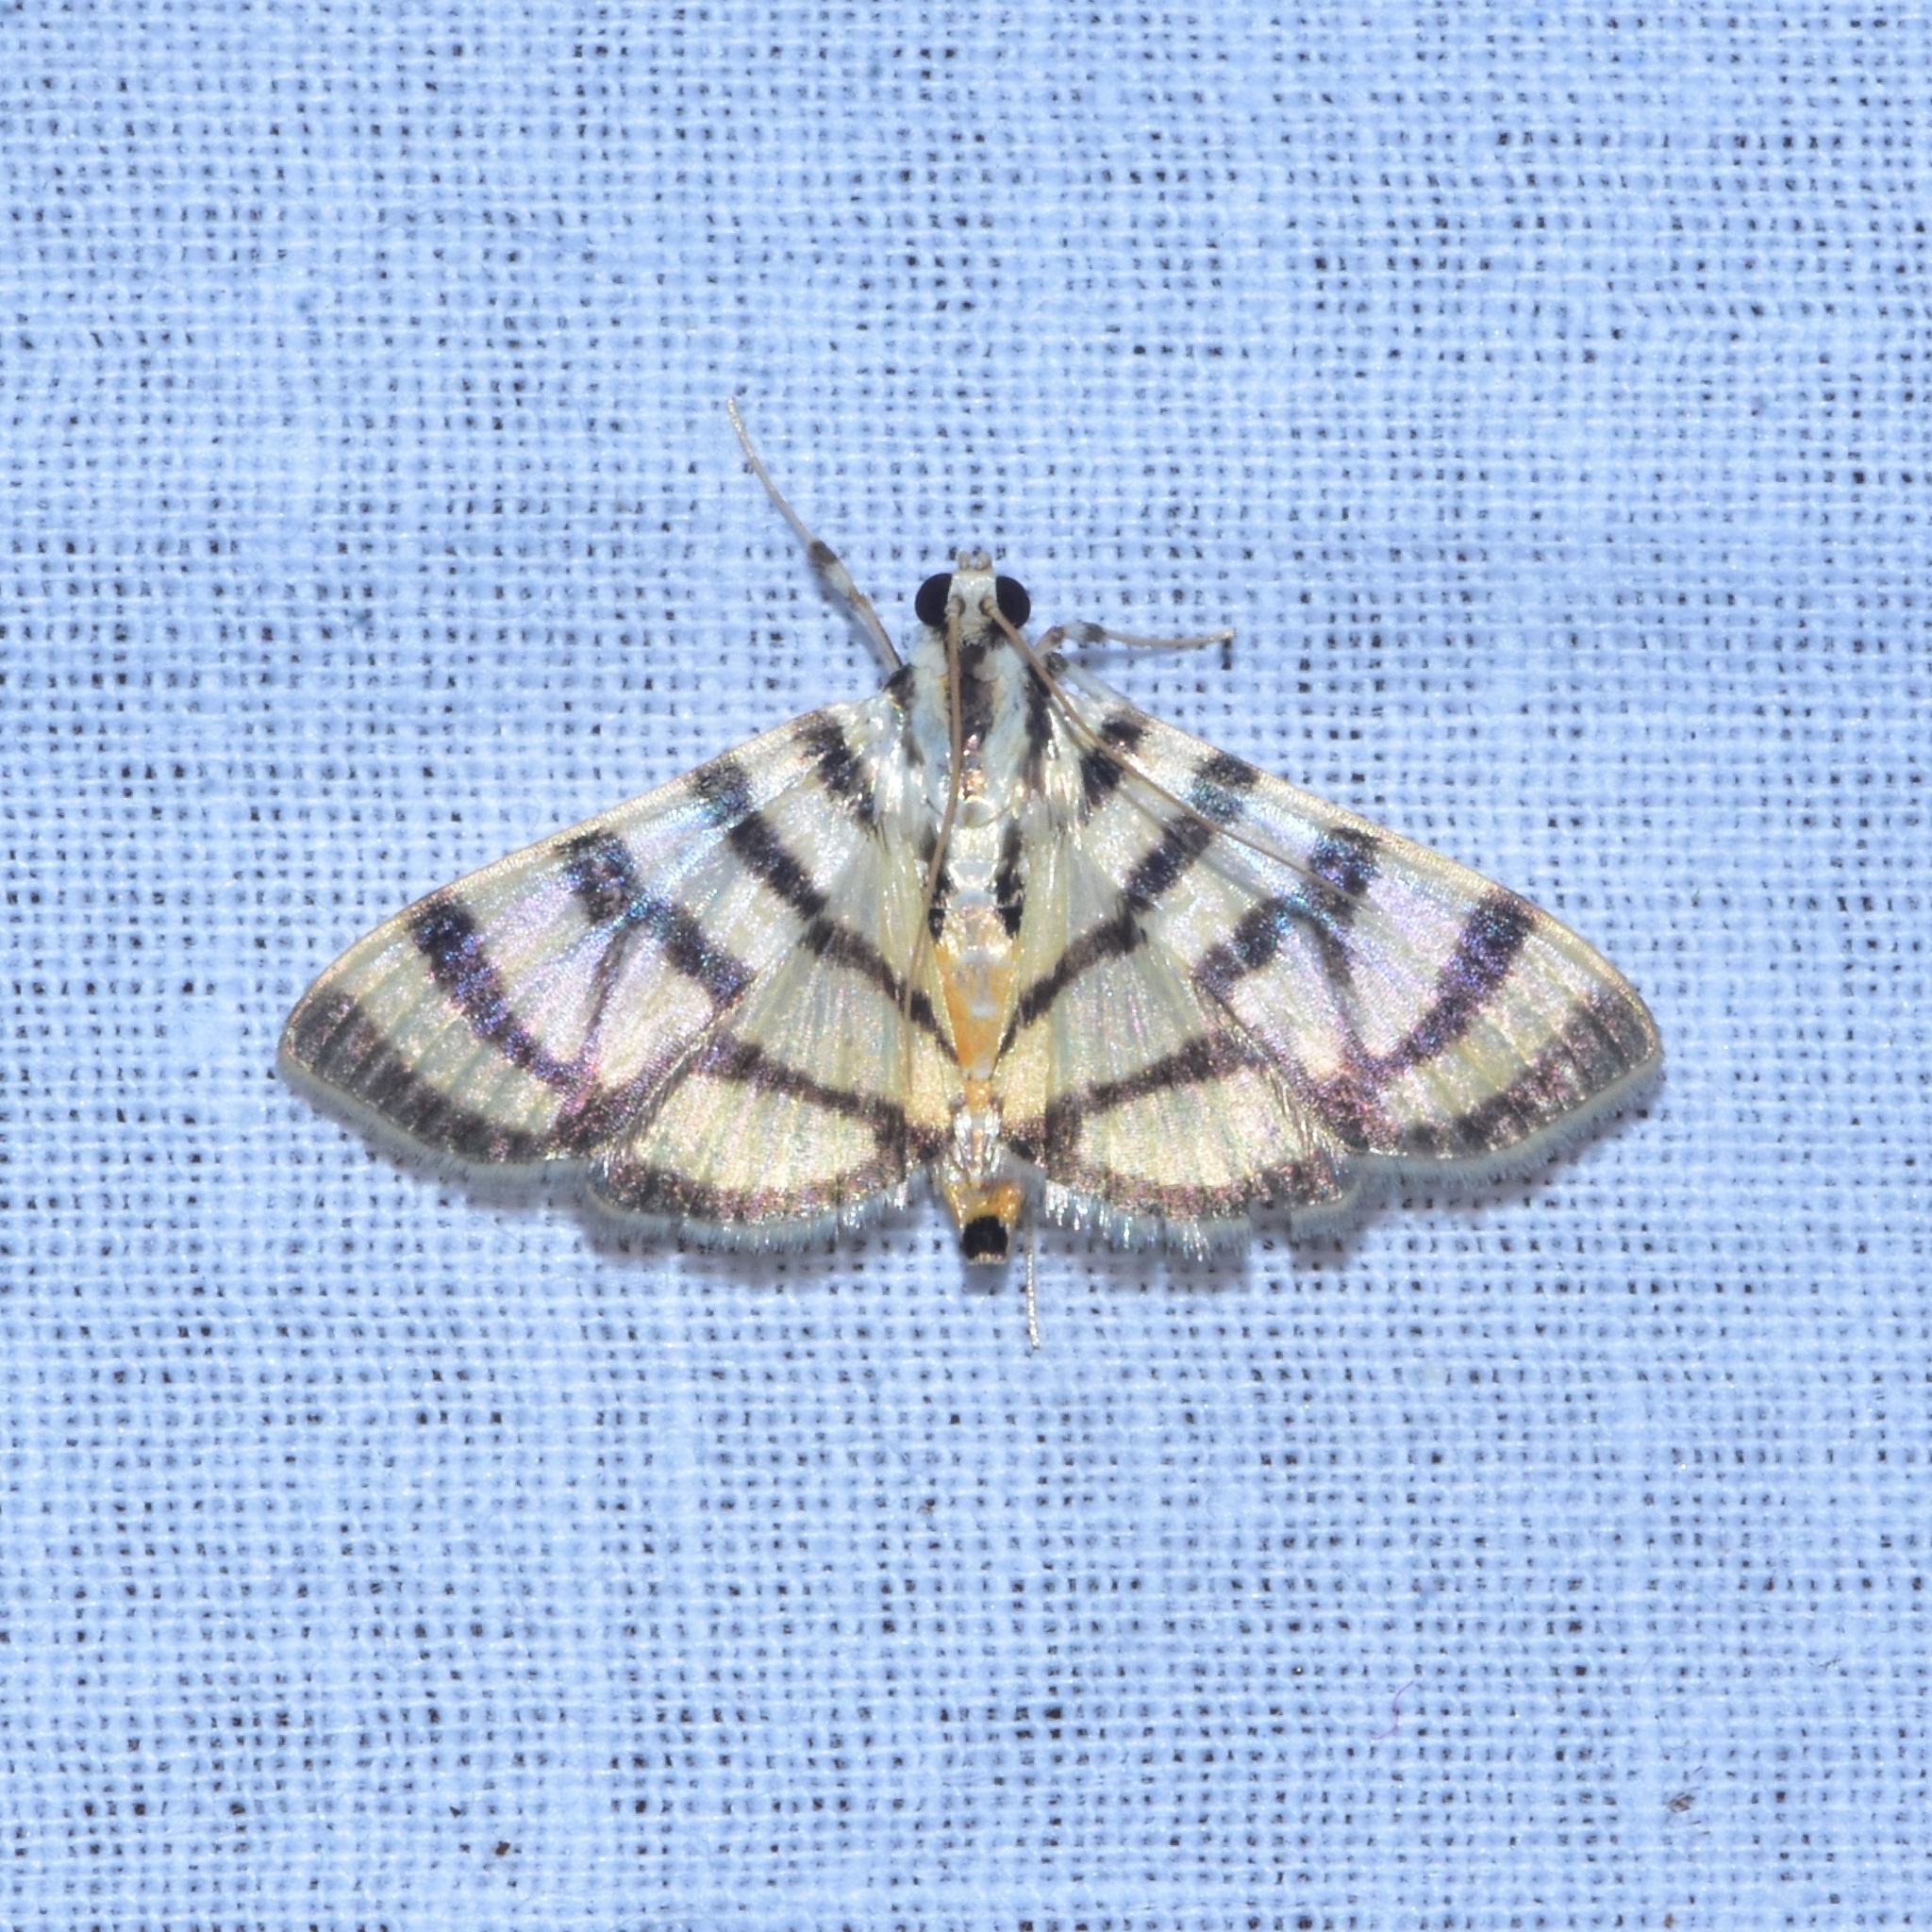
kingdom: Animalia
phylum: Arthropoda
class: Insecta
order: Lepidoptera
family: Crambidae
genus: Synclera
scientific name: Synclera
